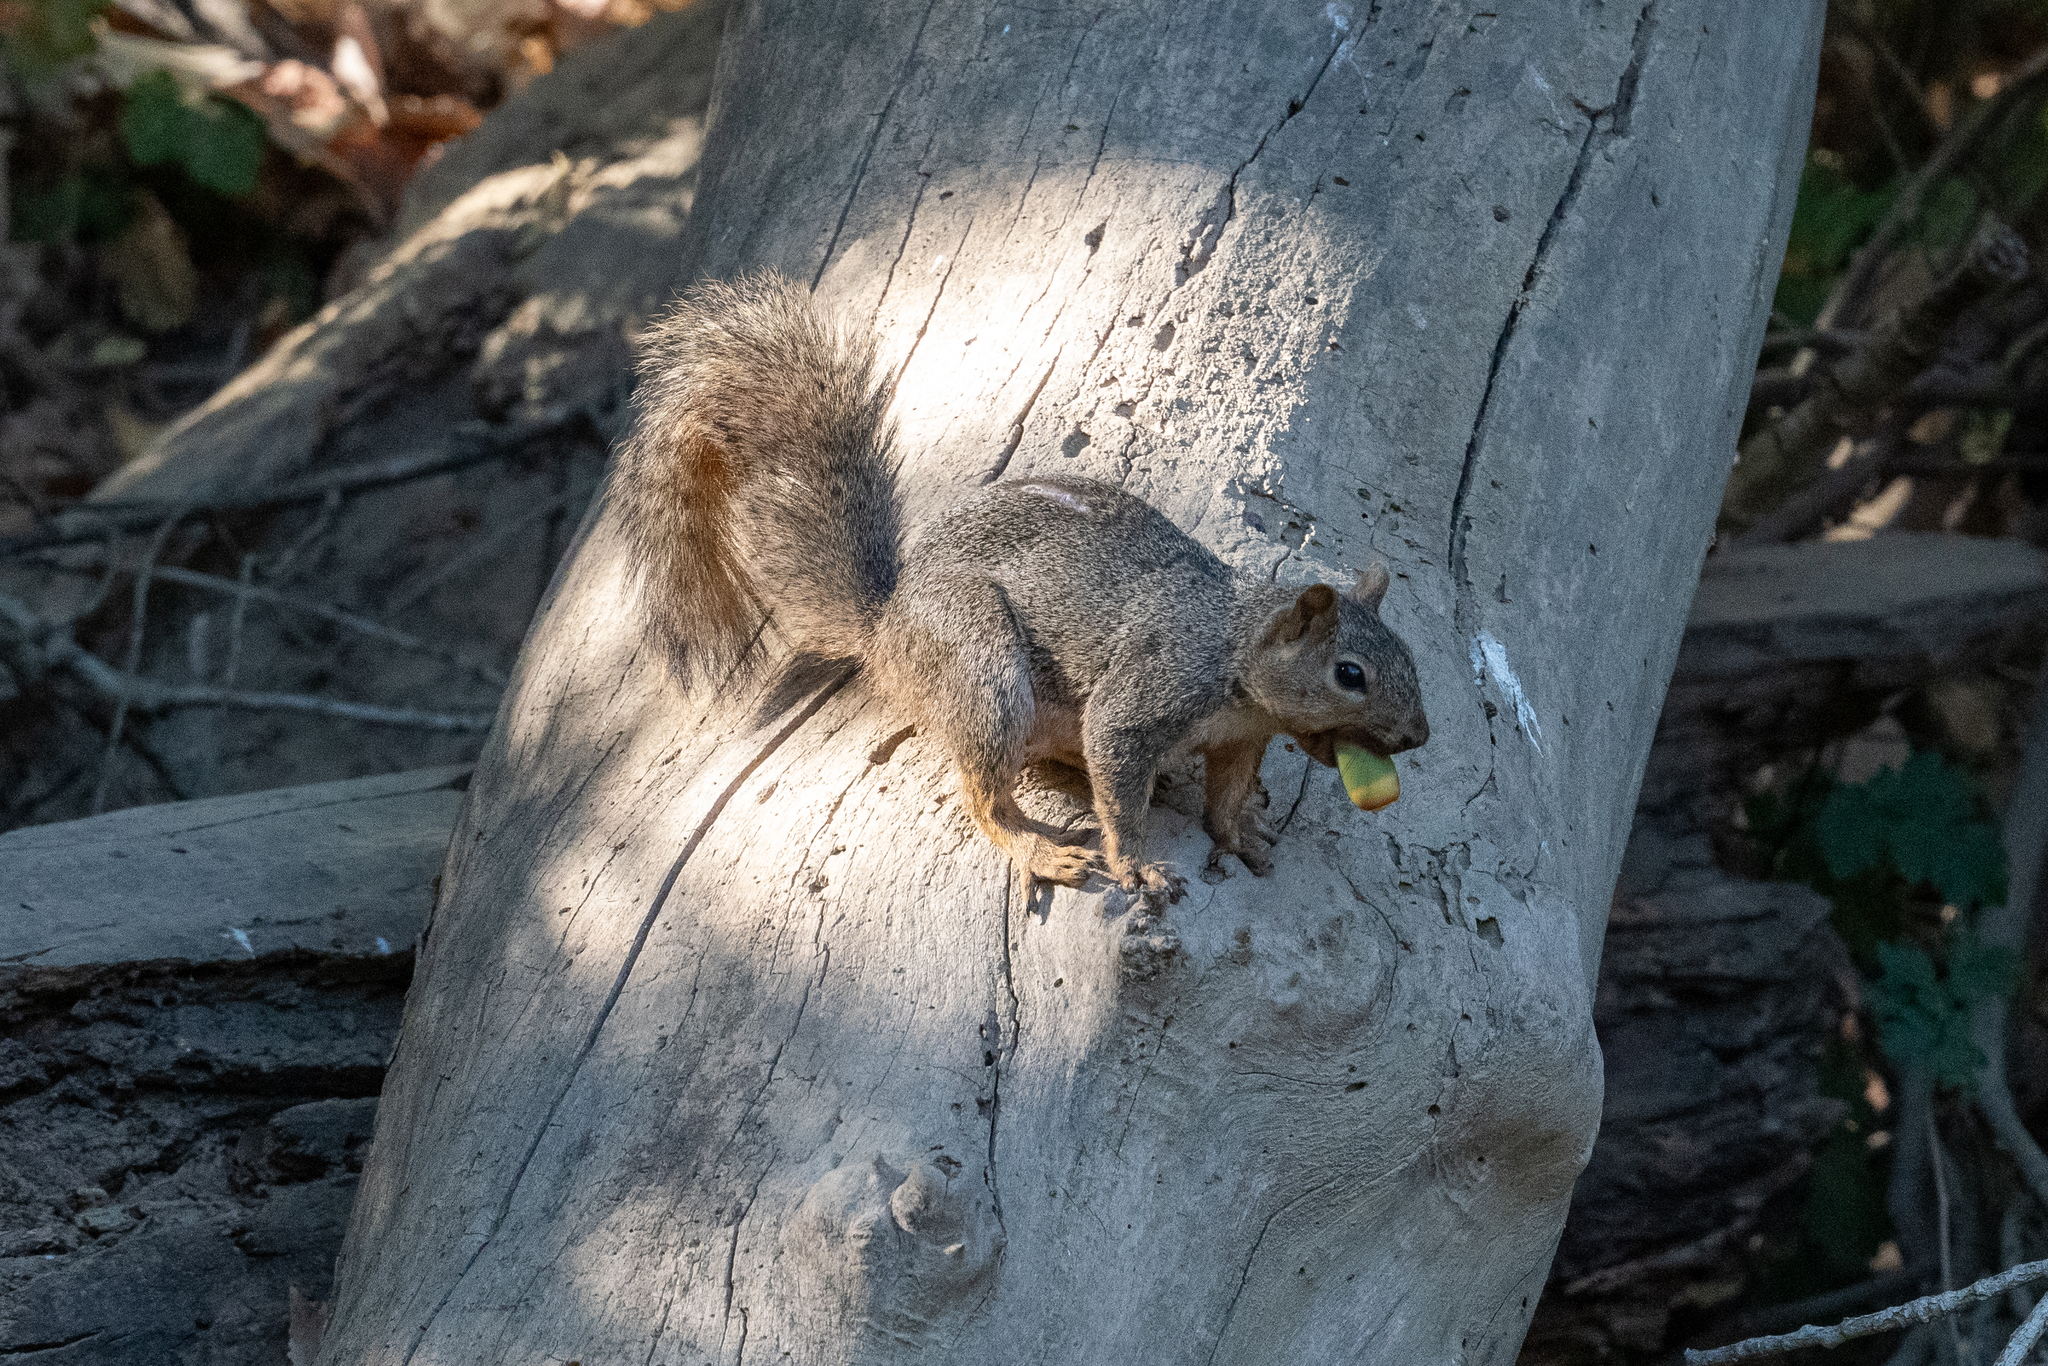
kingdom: Animalia
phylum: Chordata
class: Mammalia
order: Rodentia
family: Sciuridae
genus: Sciurus
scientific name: Sciurus niger
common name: Fox squirrel
